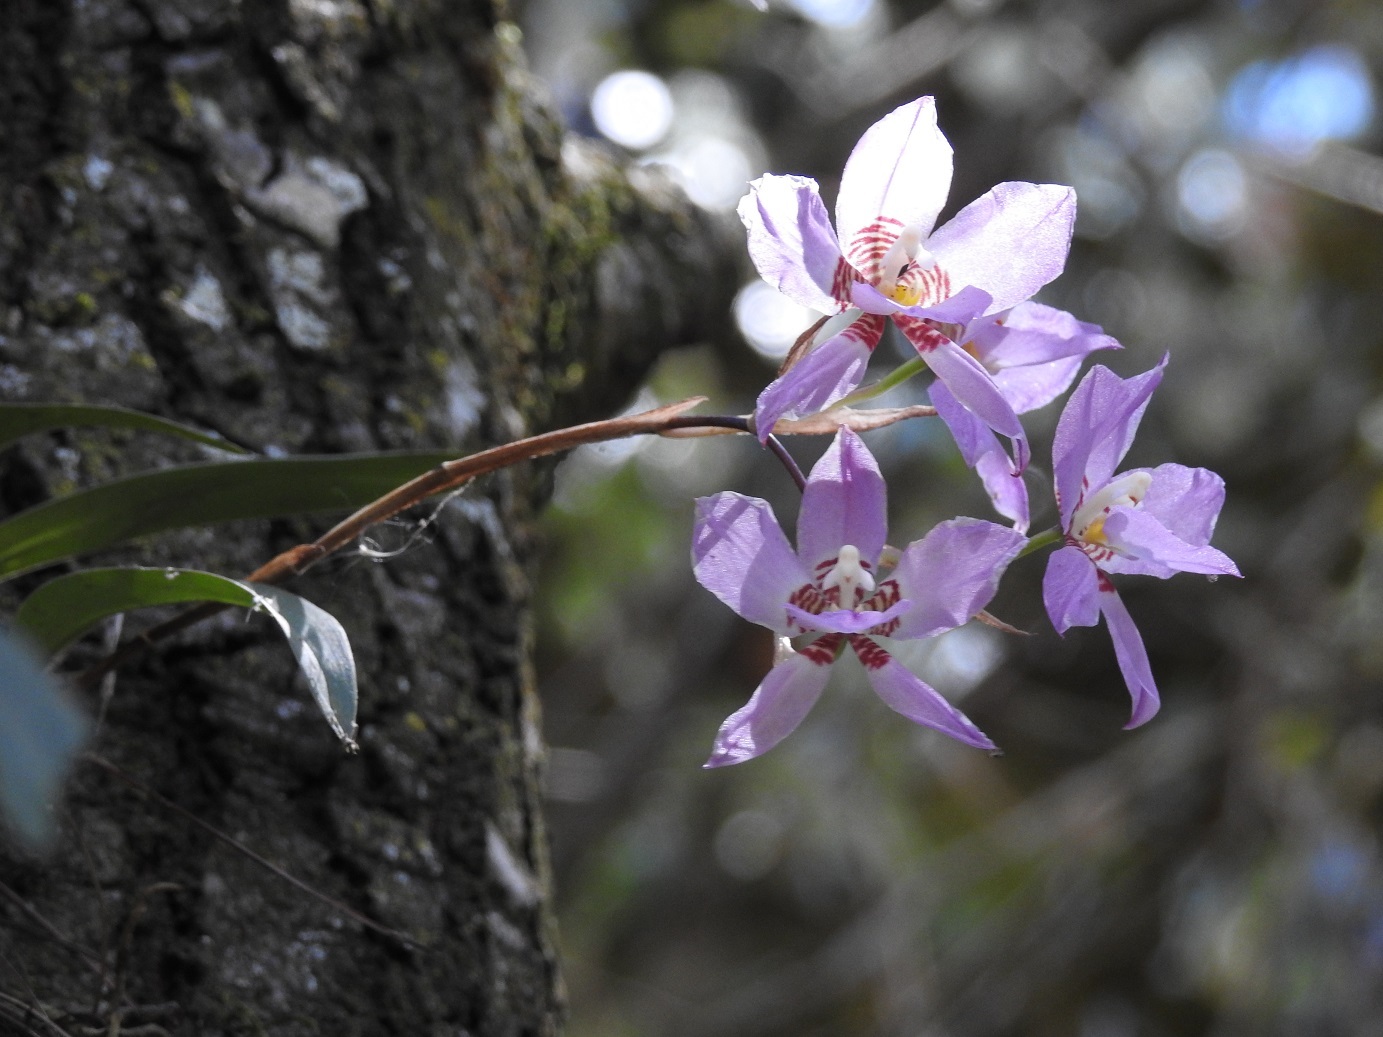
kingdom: Plantae
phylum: Tracheophyta
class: Liliopsida
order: Asparagales
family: Orchidaceae
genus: Rhynchostele
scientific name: Rhynchostele cervantesii
